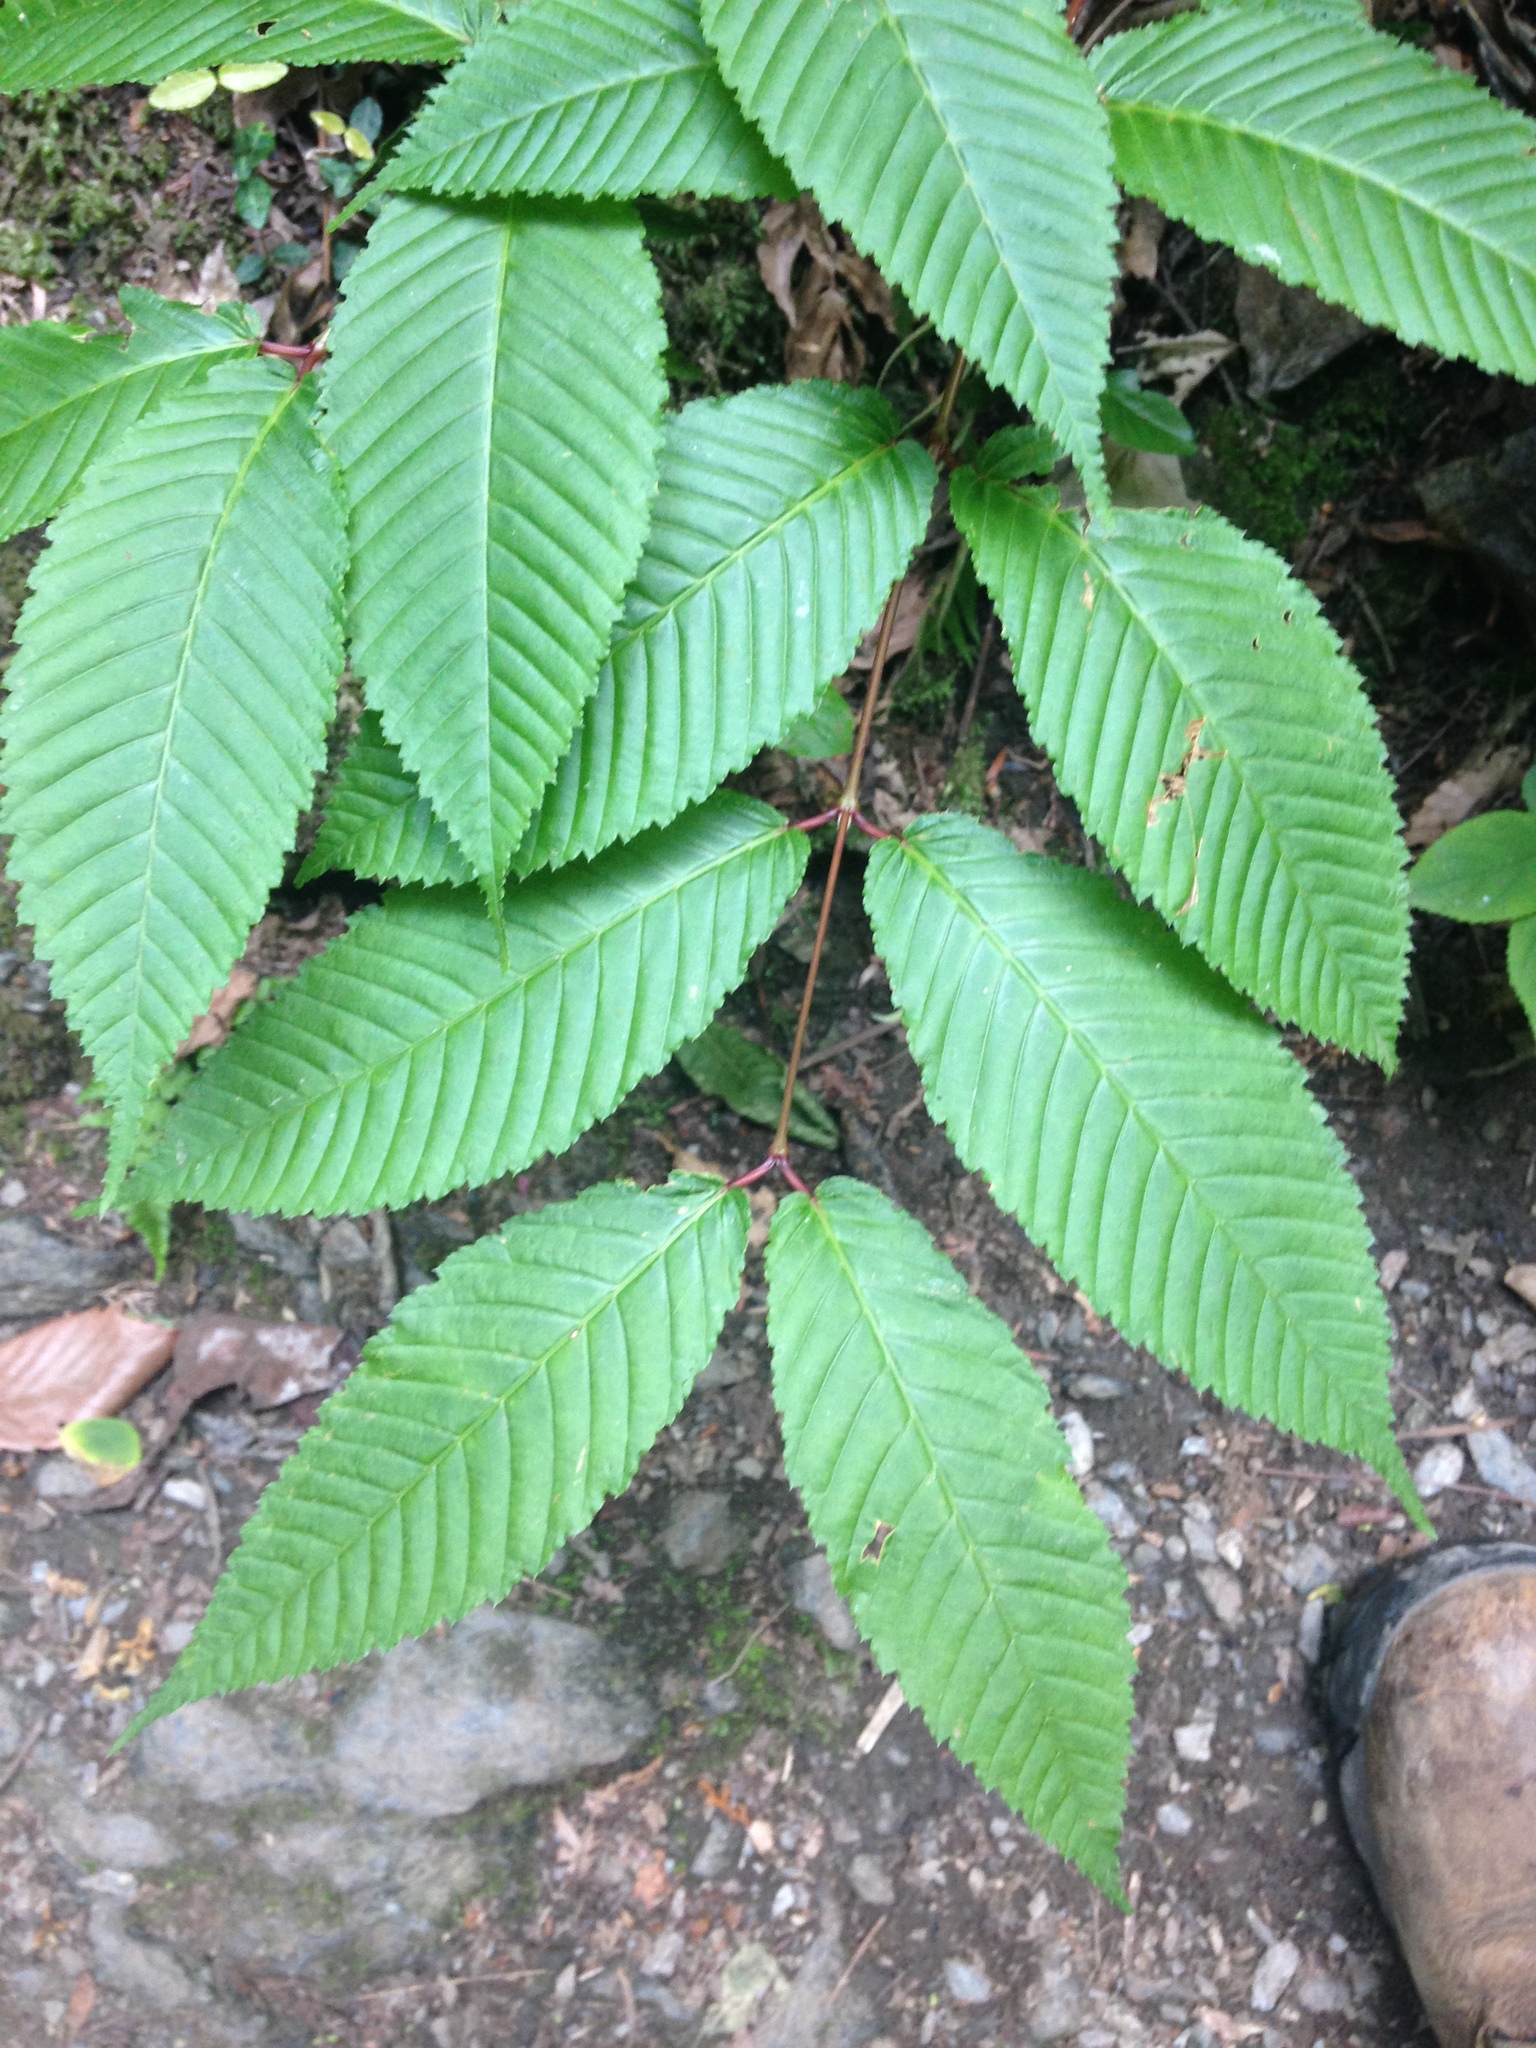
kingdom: Plantae
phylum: Tracheophyta
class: Magnoliopsida
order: Sapindales
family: Sapindaceae
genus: Acer
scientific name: Acer carpinifolium
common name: Hornbeam maple
